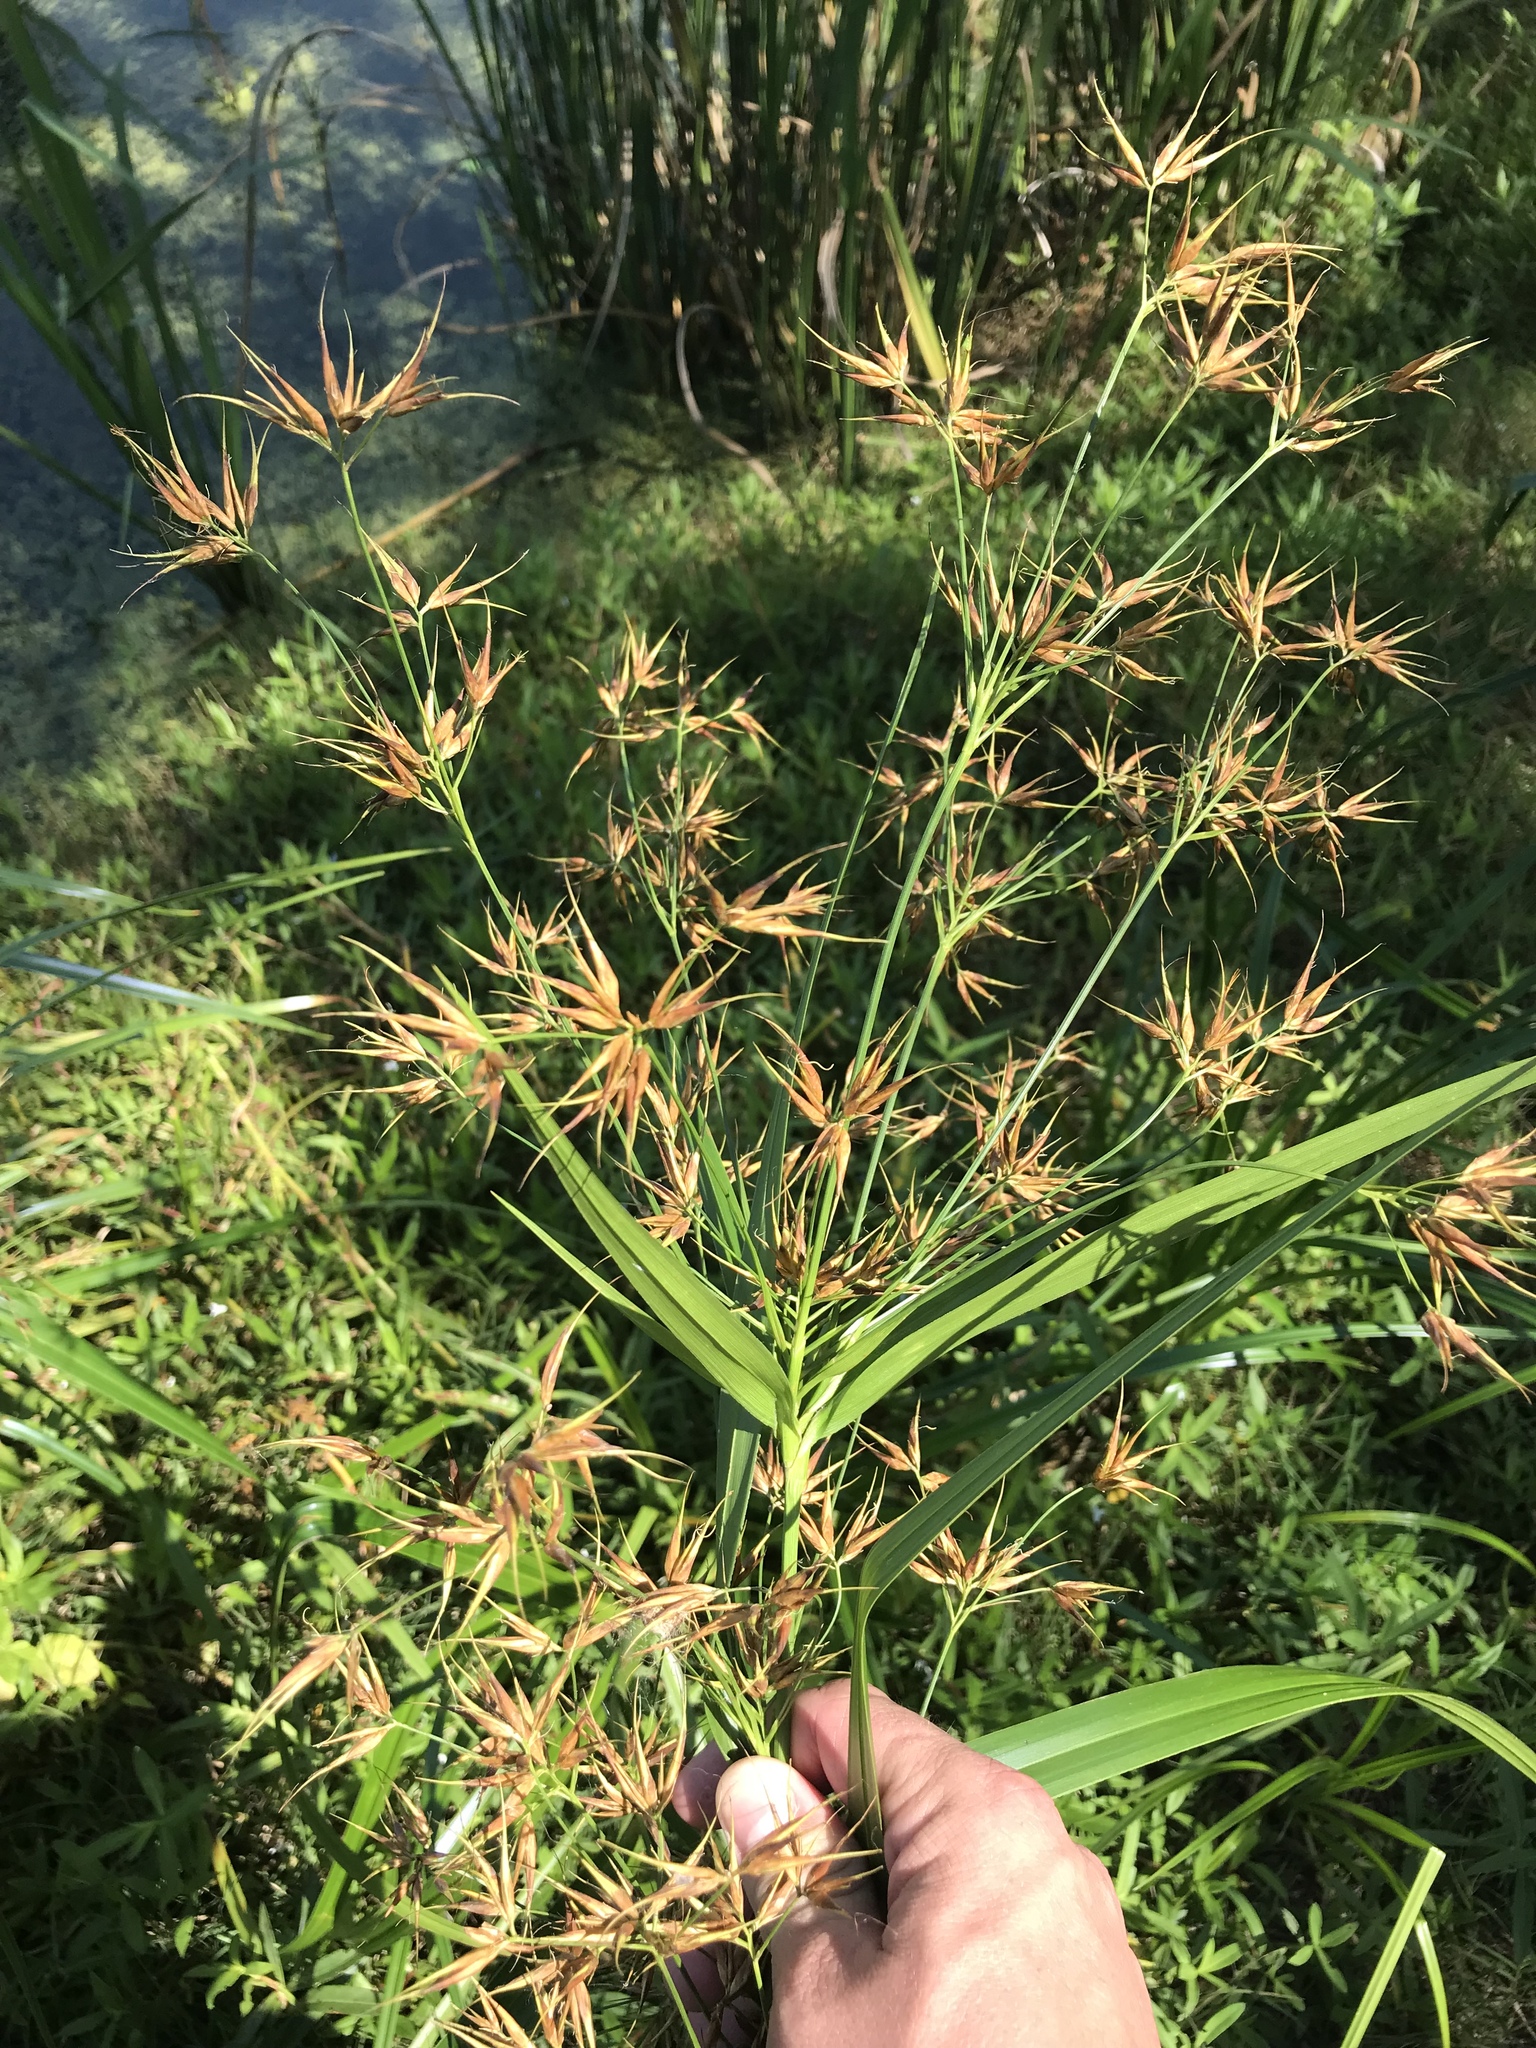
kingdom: Plantae
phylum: Tracheophyta
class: Liliopsida
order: Poales
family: Cyperaceae
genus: Rhynchospora
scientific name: Rhynchospora corniculata
